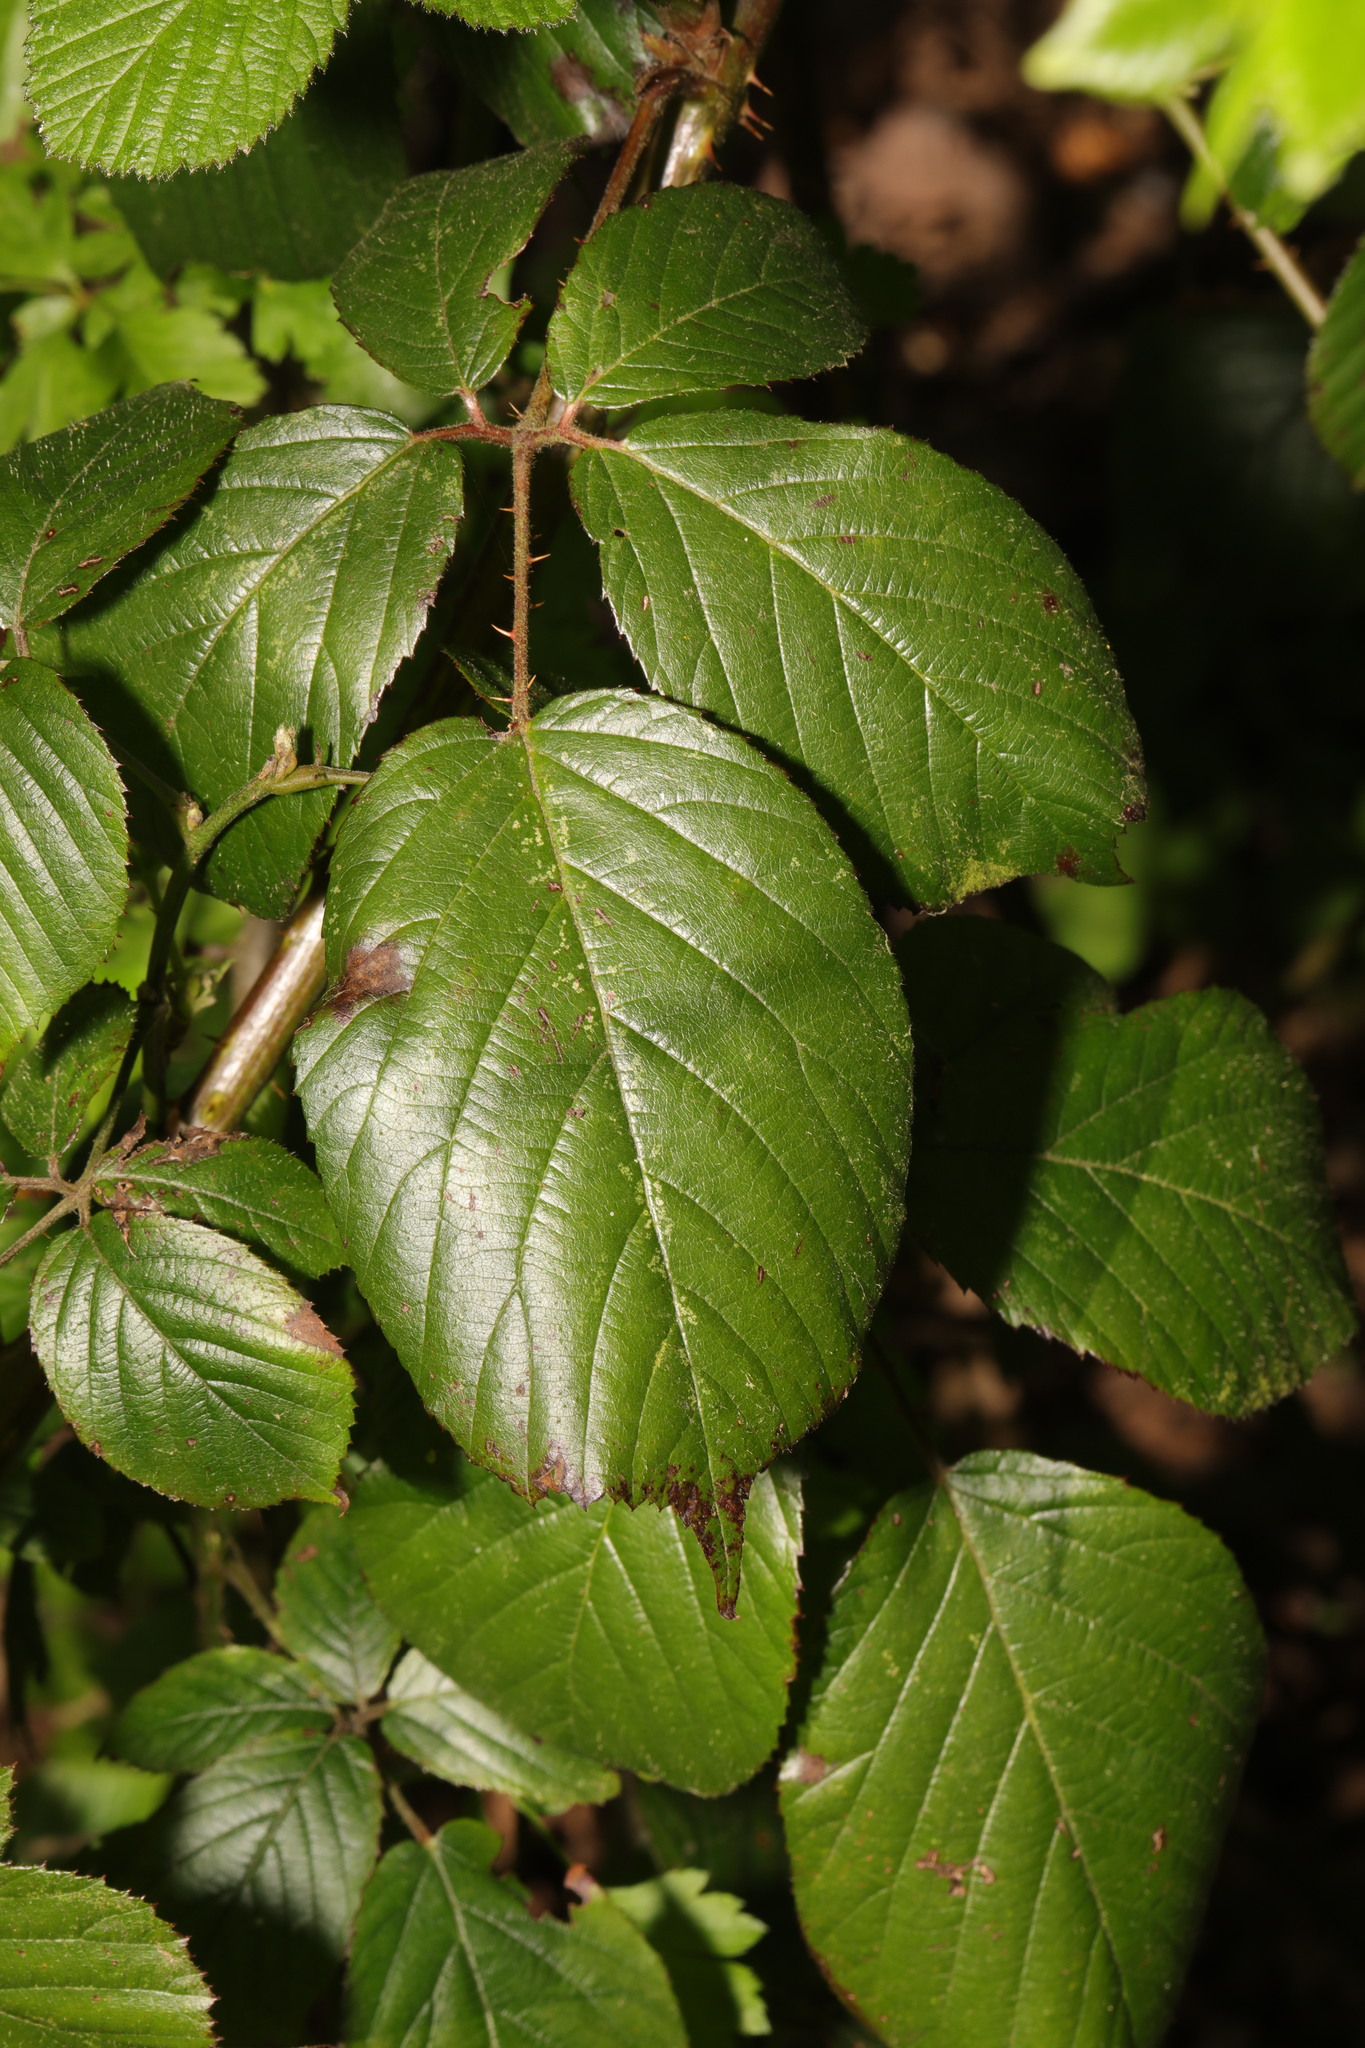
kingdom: Plantae
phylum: Tracheophyta
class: Magnoliopsida
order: Rosales
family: Rosaceae
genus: Rubus
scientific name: Rubus wirralensis
